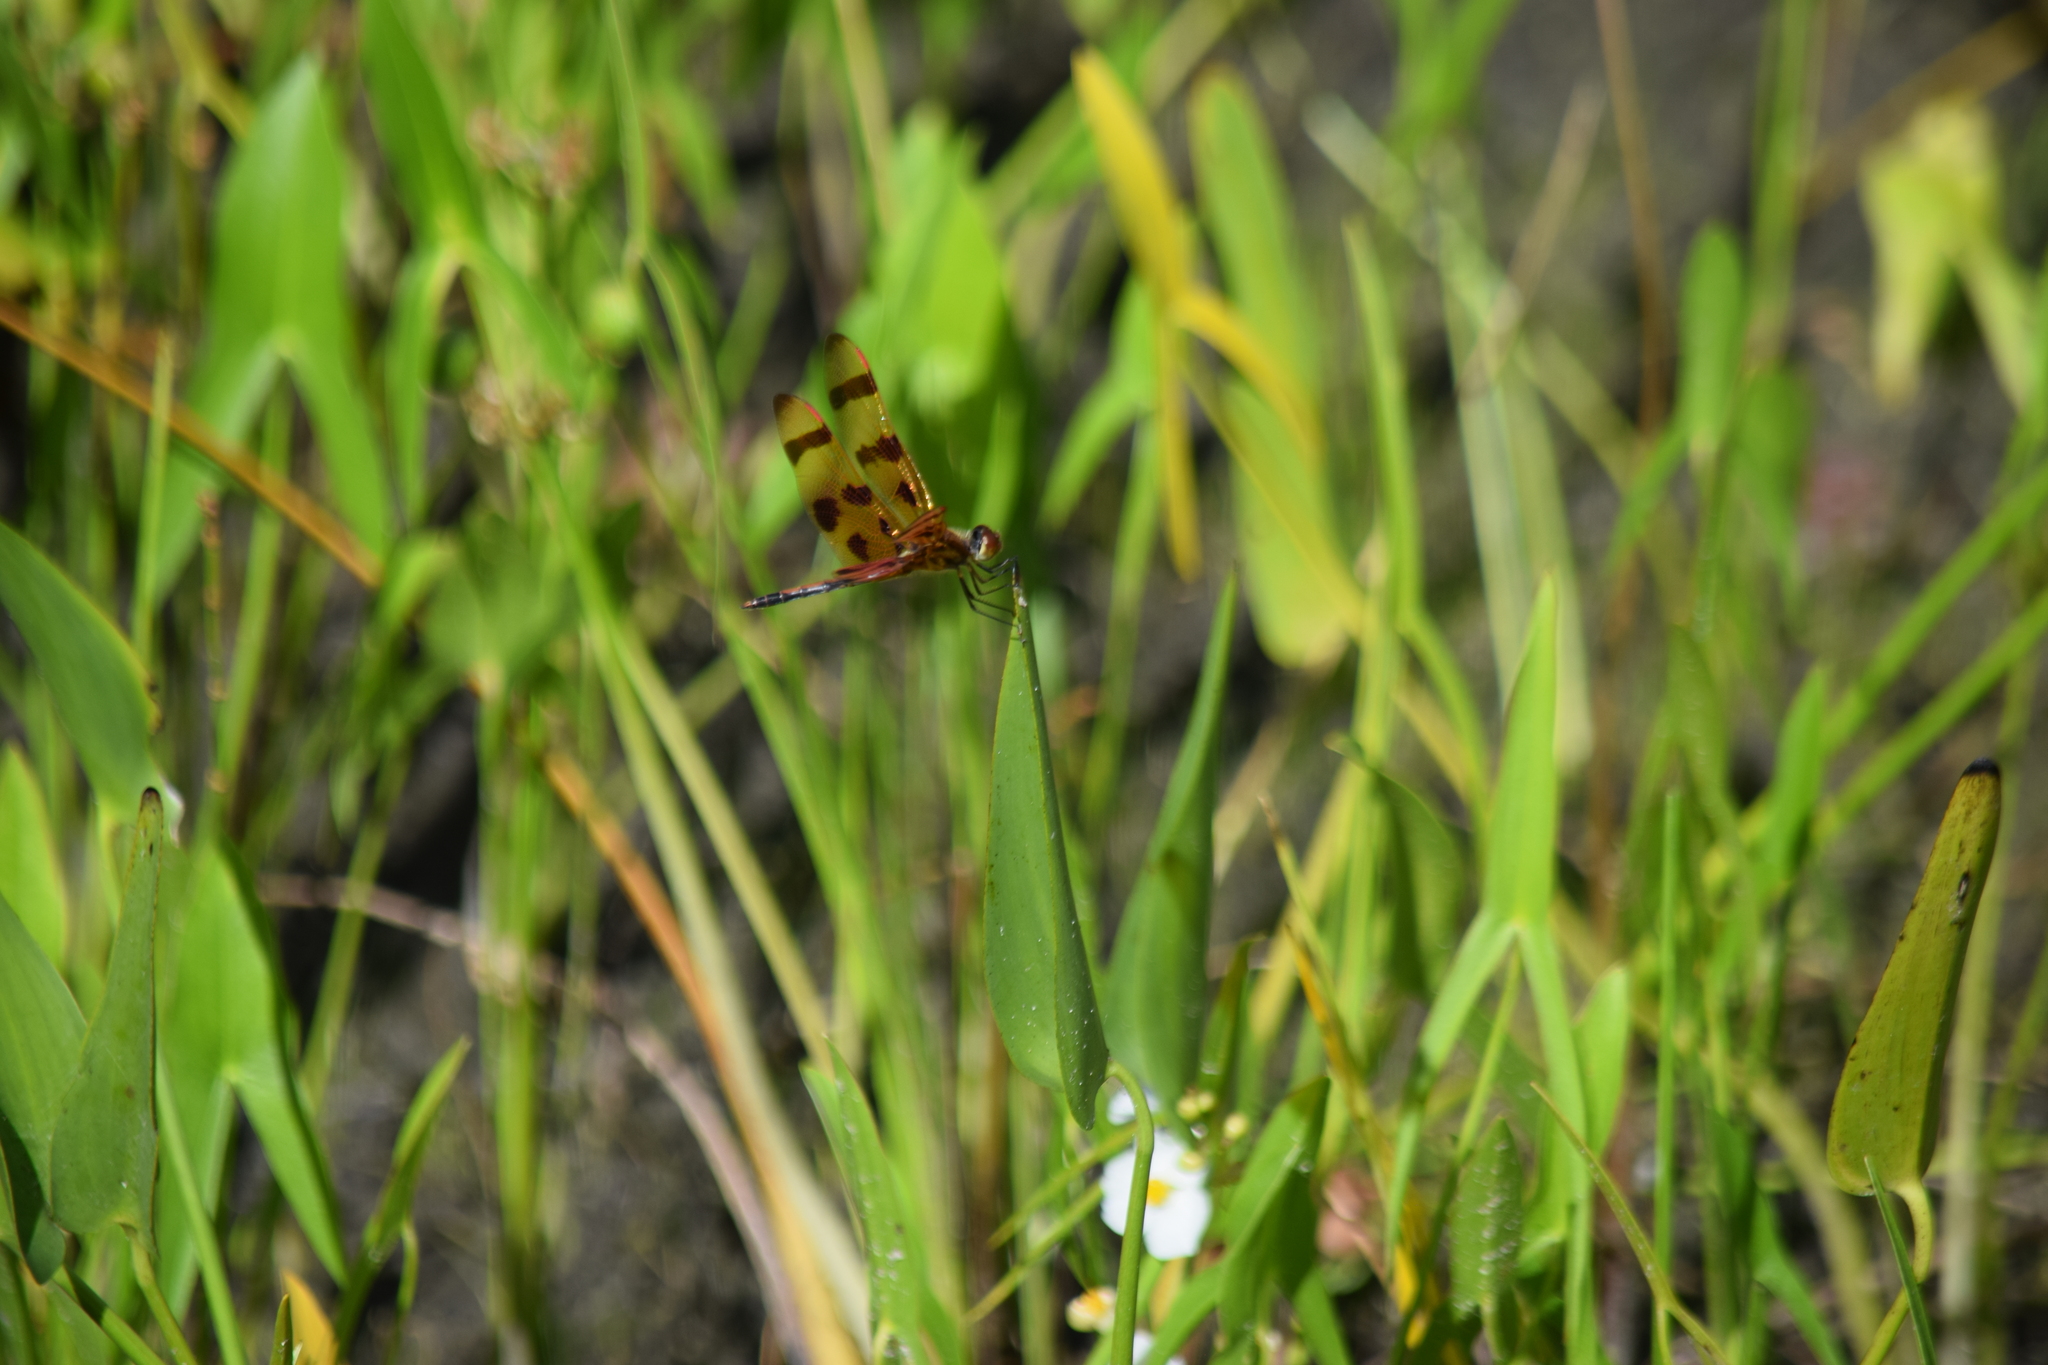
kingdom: Animalia
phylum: Arthropoda
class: Insecta
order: Odonata
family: Libellulidae
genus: Celithemis
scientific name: Celithemis eponina
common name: Halloween pennant
